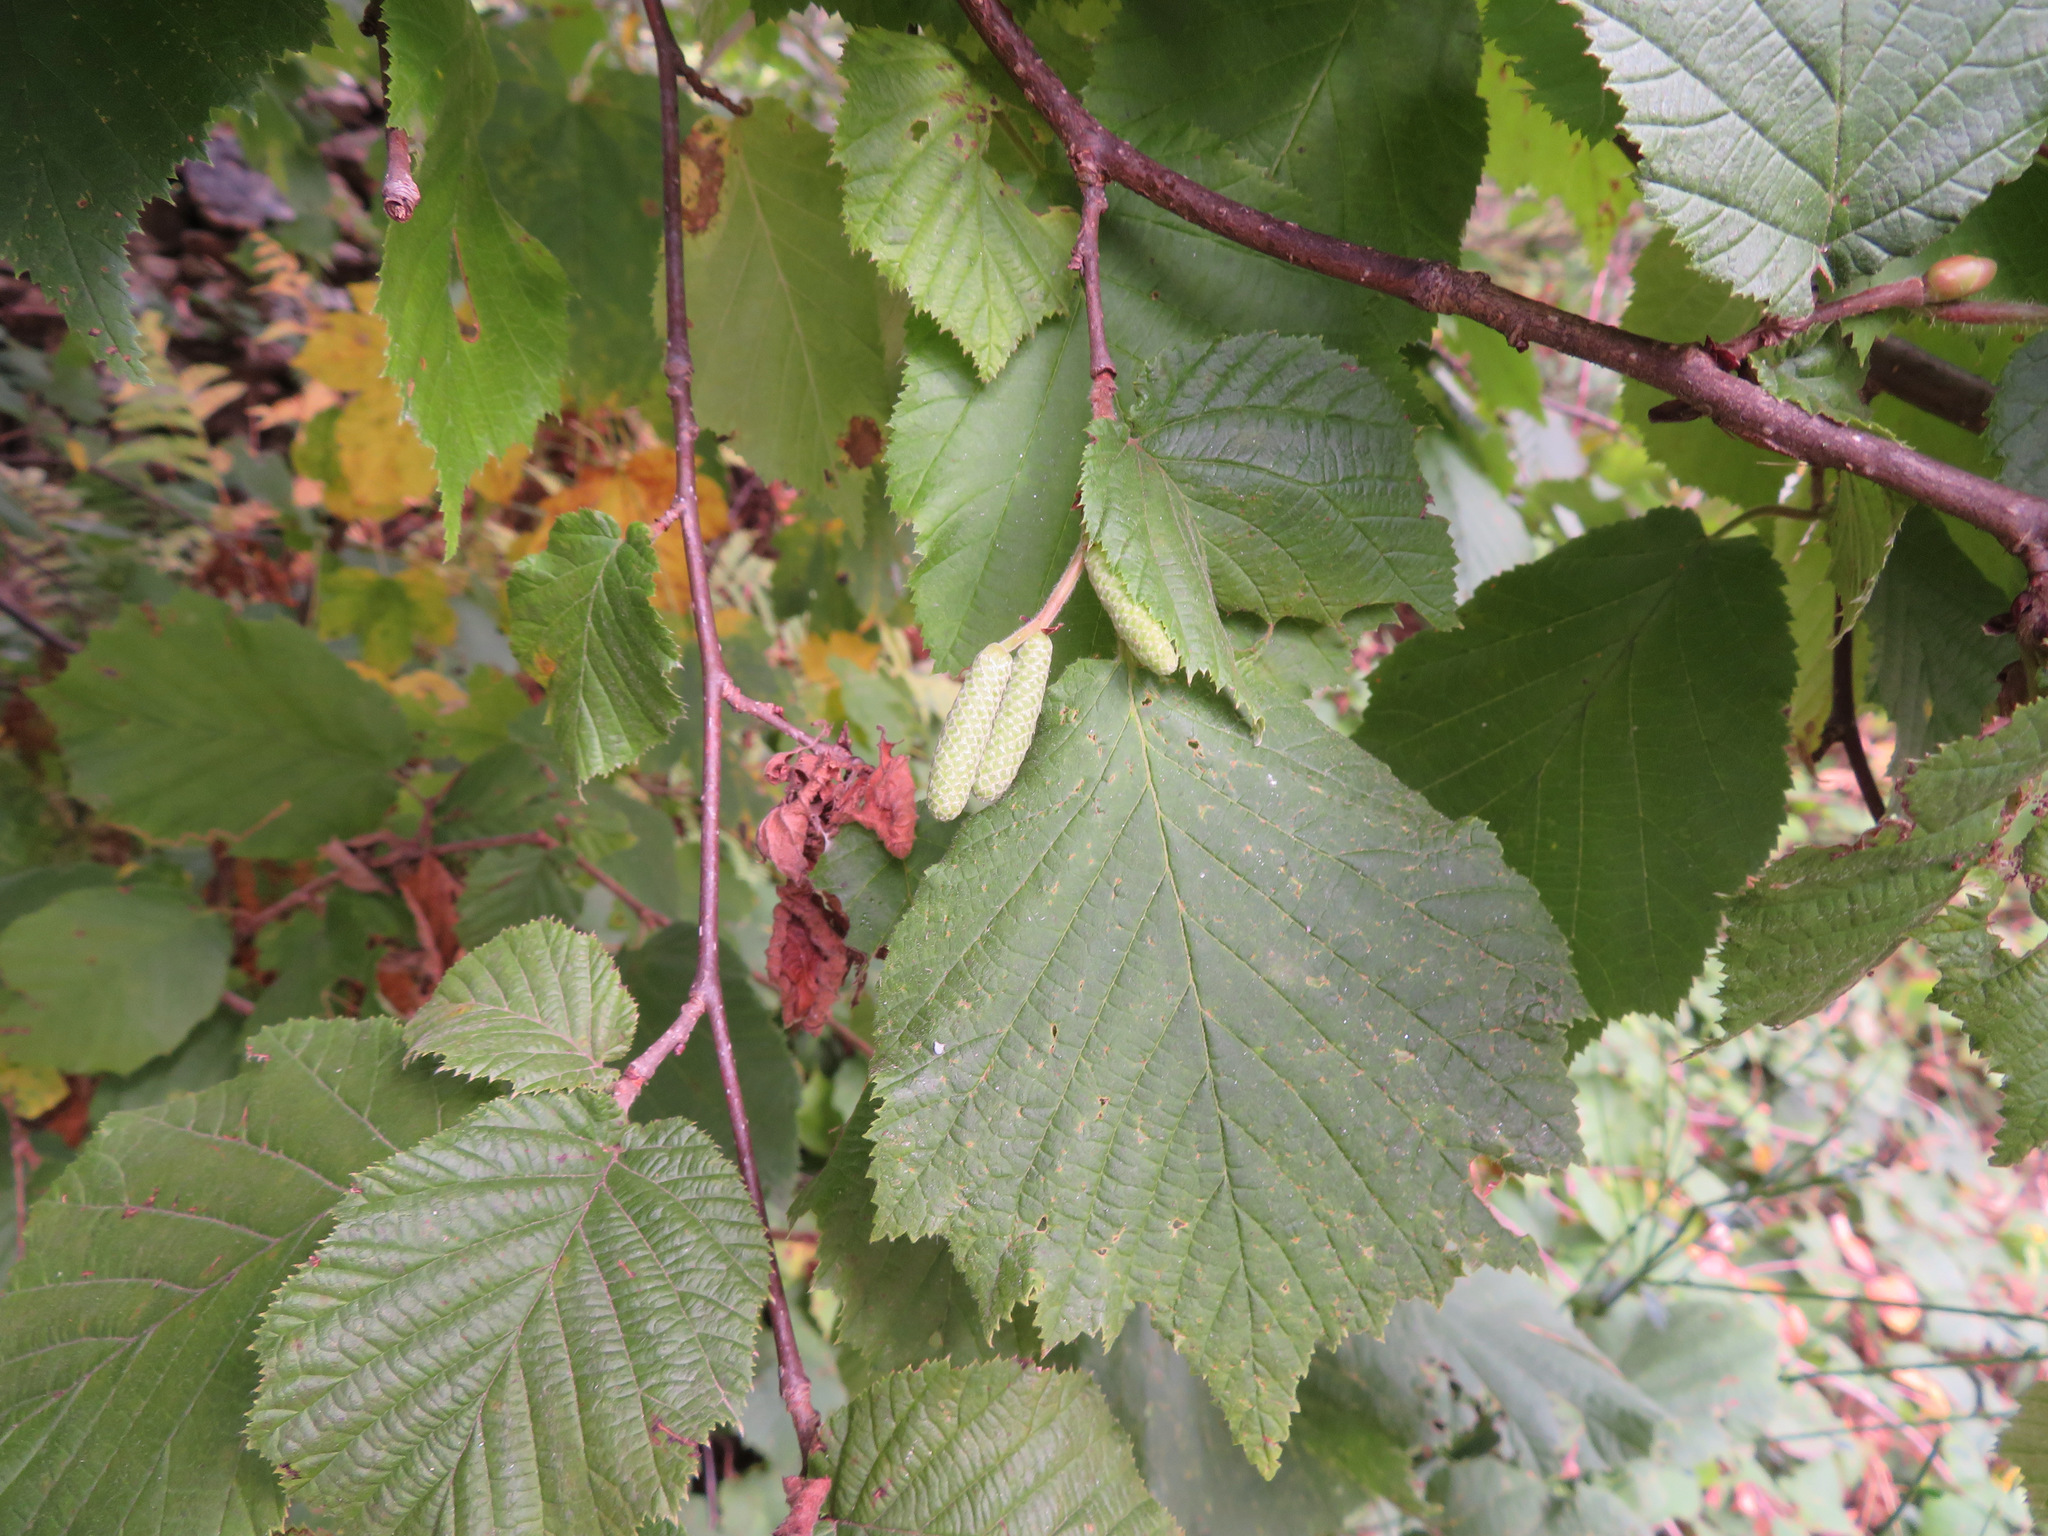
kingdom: Plantae
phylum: Tracheophyta
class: Magnoliopsida
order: Fagales
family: Betulaceae
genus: Corylus
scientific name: Corylus avellana
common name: European hazel
